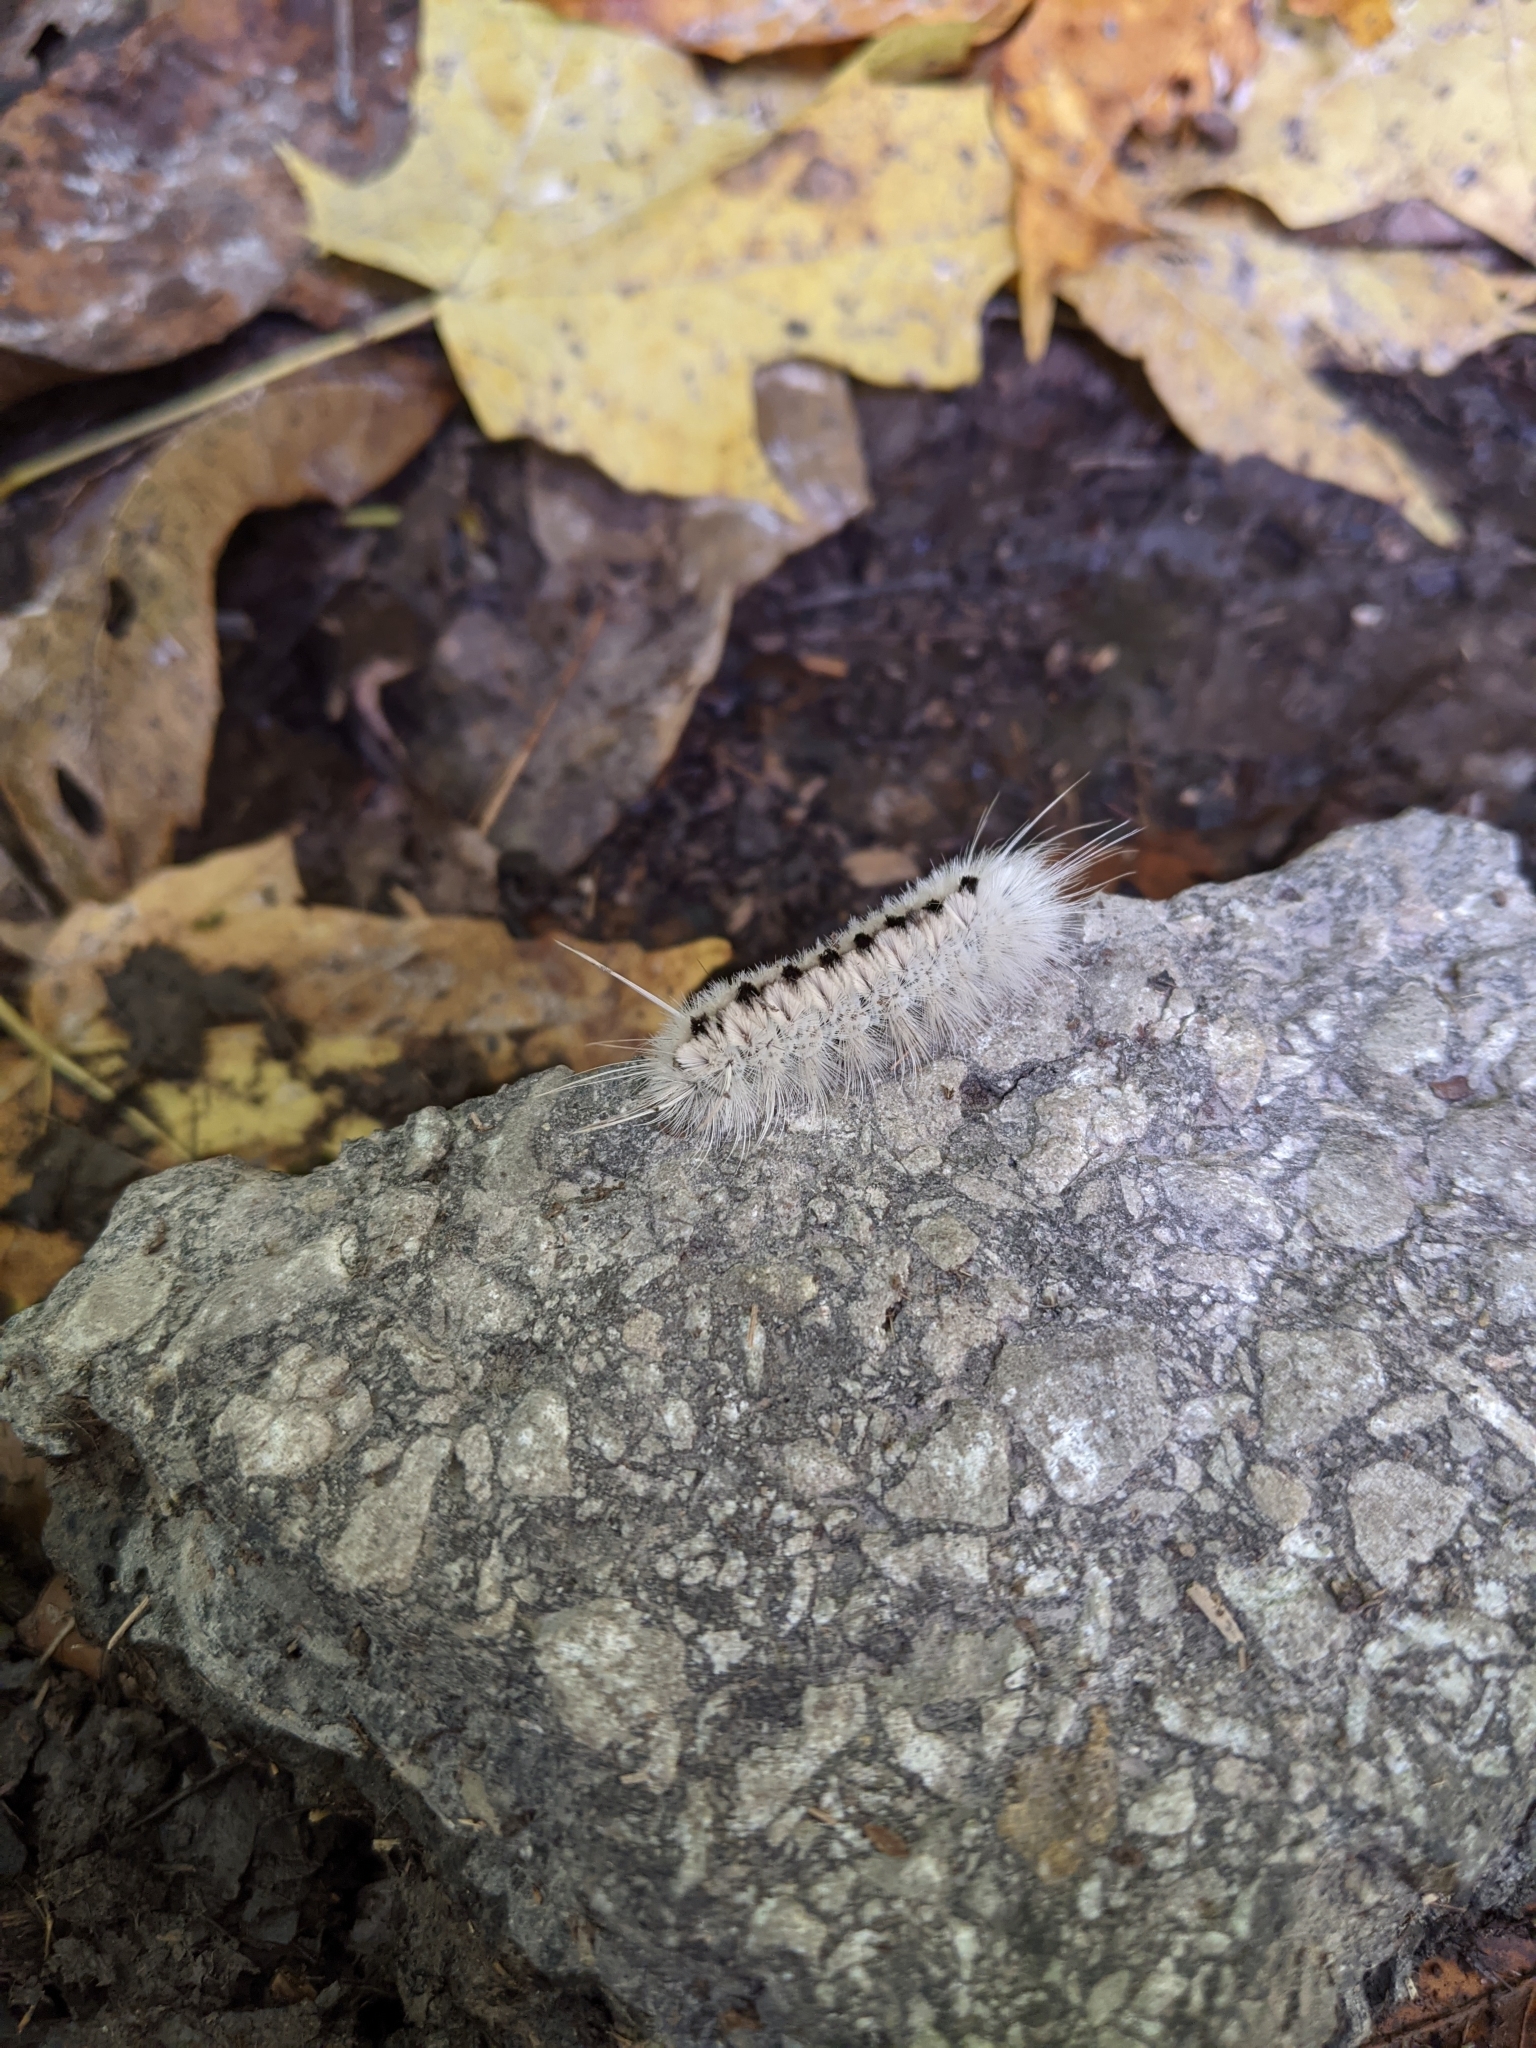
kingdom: Animalia
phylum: Arthropoda
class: Insecta
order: Lepidoptera
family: Erebidae
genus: Lophocampa
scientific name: Lophocampa caryae
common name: Hickory tussock moth
